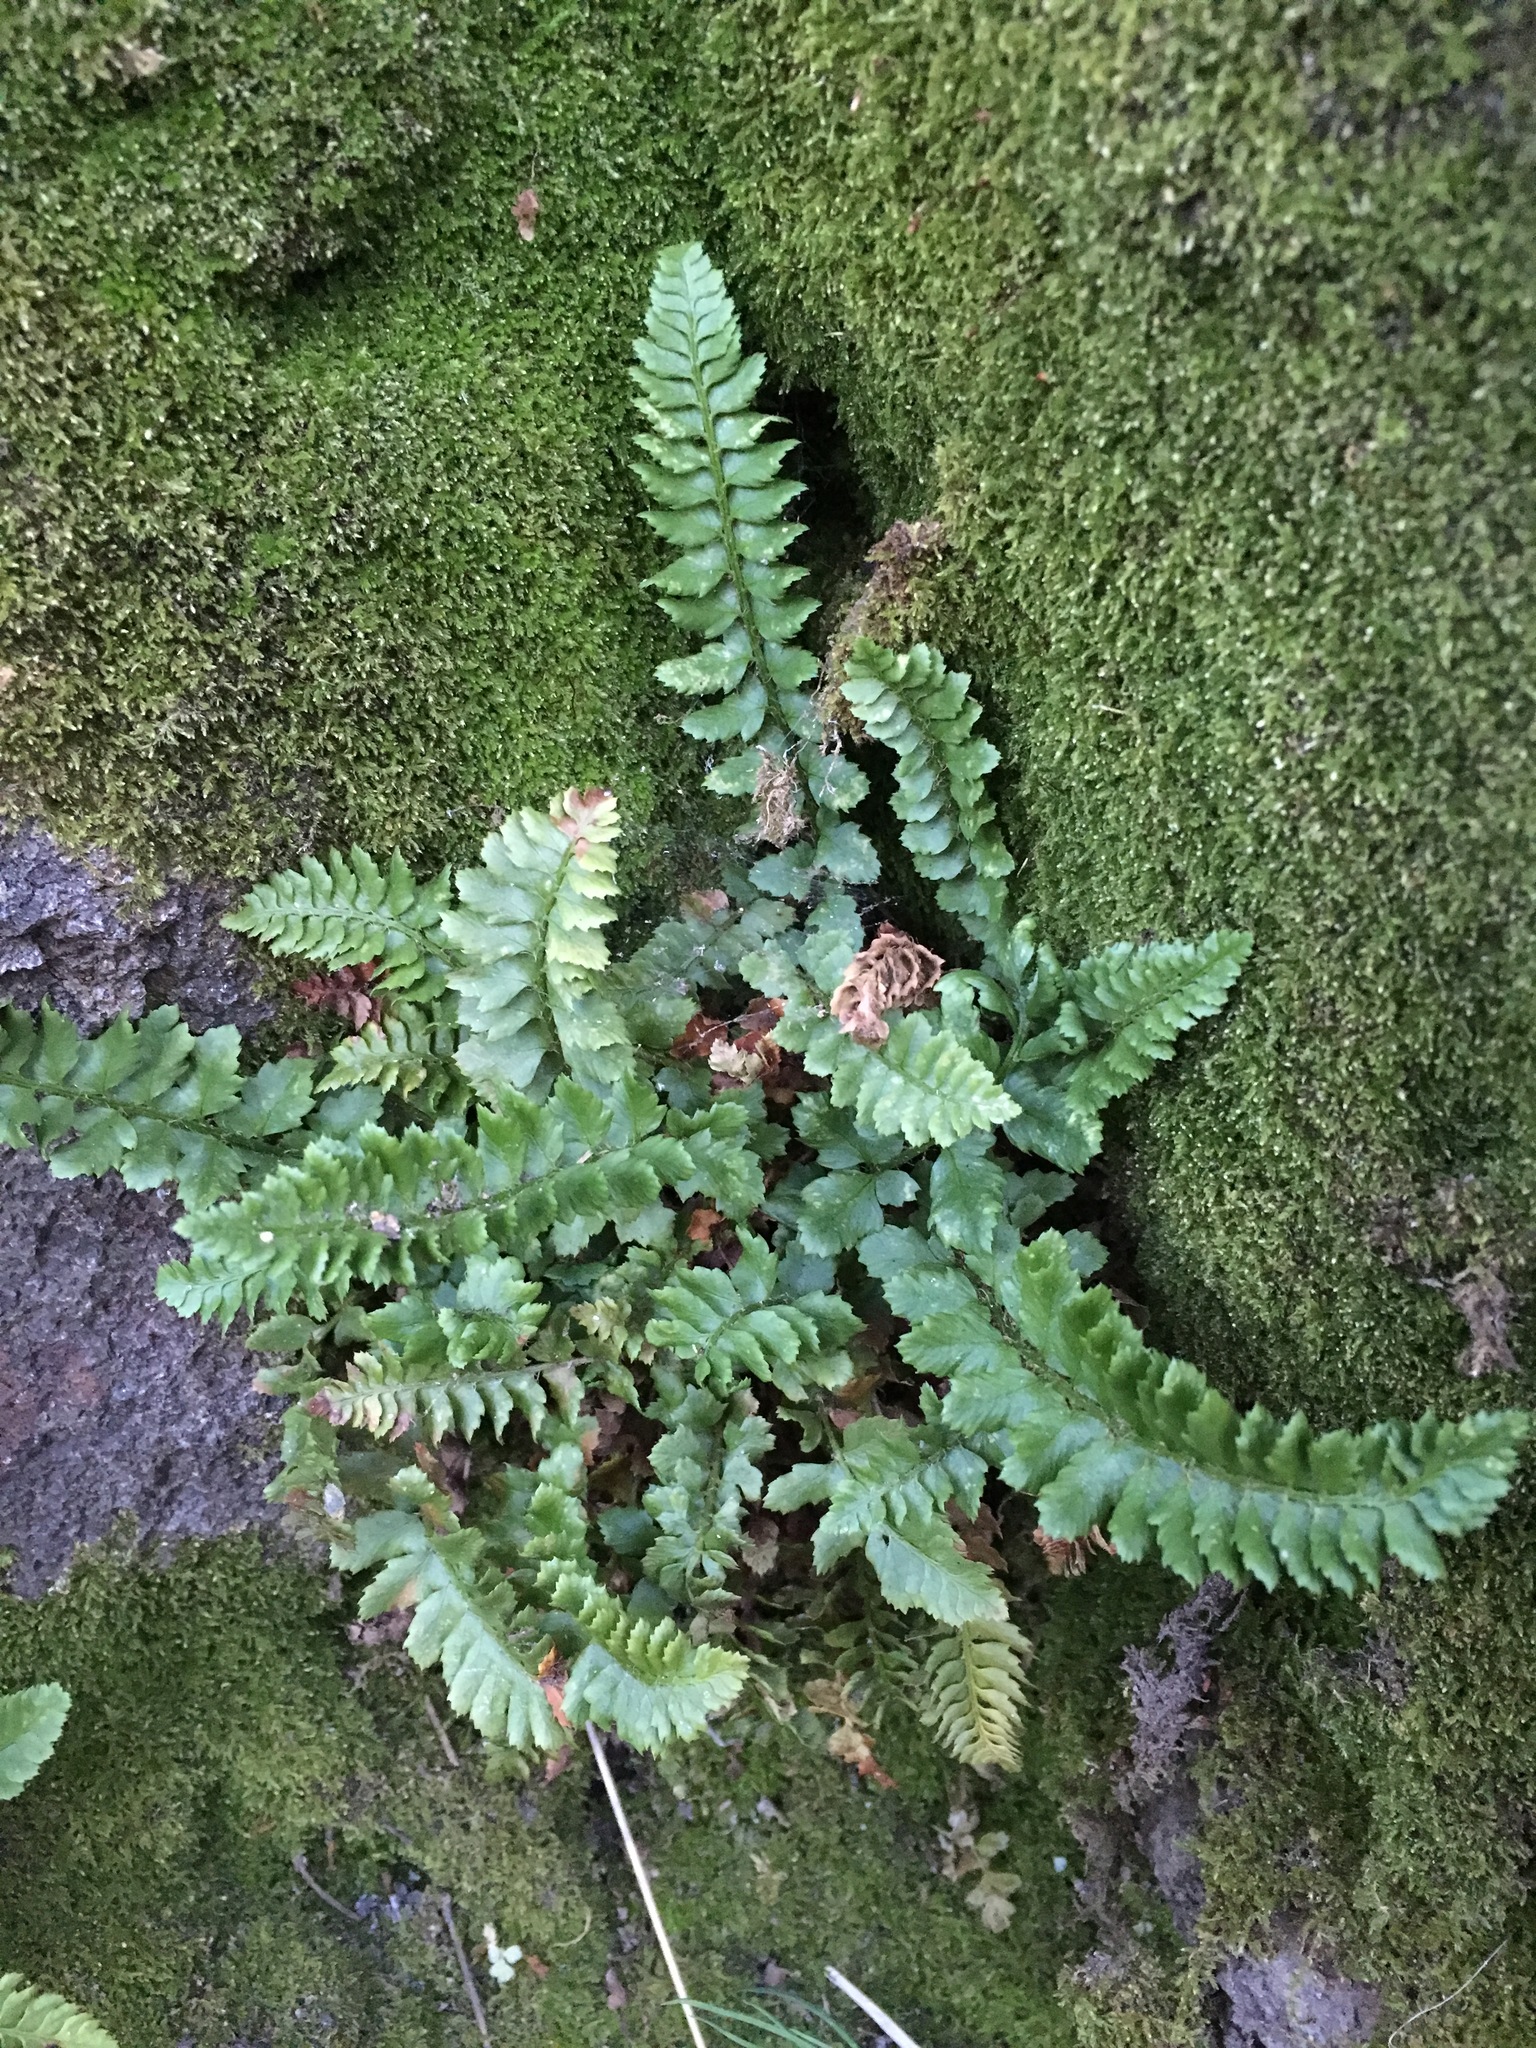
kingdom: Plantae
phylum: Tracheophyta
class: Polypodiopsida
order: Polypodiales
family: Dryopteridaceae
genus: Polystichum
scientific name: Polystichum kruckebergii
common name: Kruckeberg's holly fern
